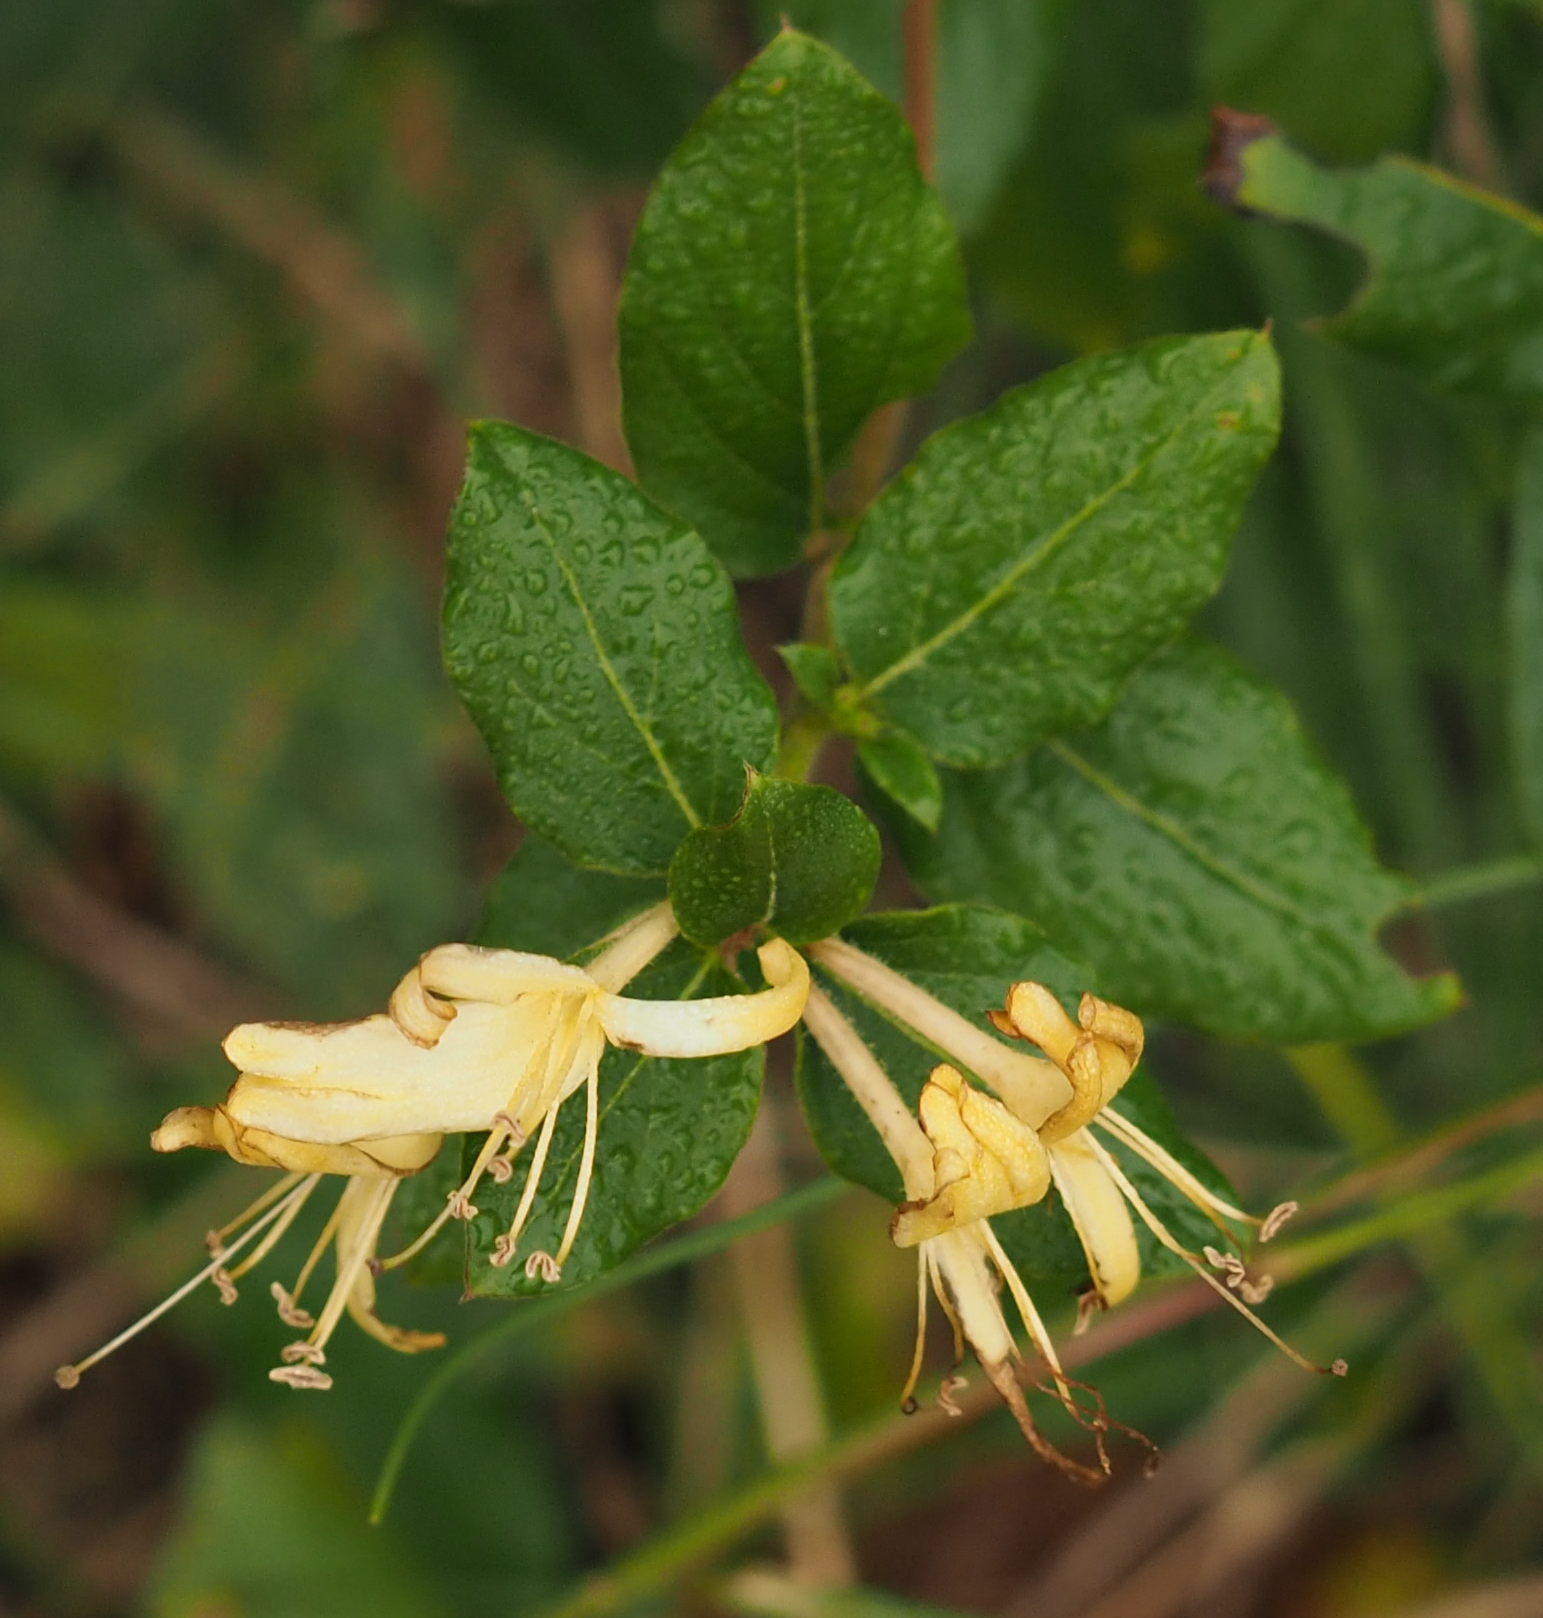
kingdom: Plantae
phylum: Tracheophyta
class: Magnoliopsida
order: Dipsacales
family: Caprifoliaceae
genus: Lonicera
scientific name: Lonicera japonica
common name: Japanese honeysuckle
